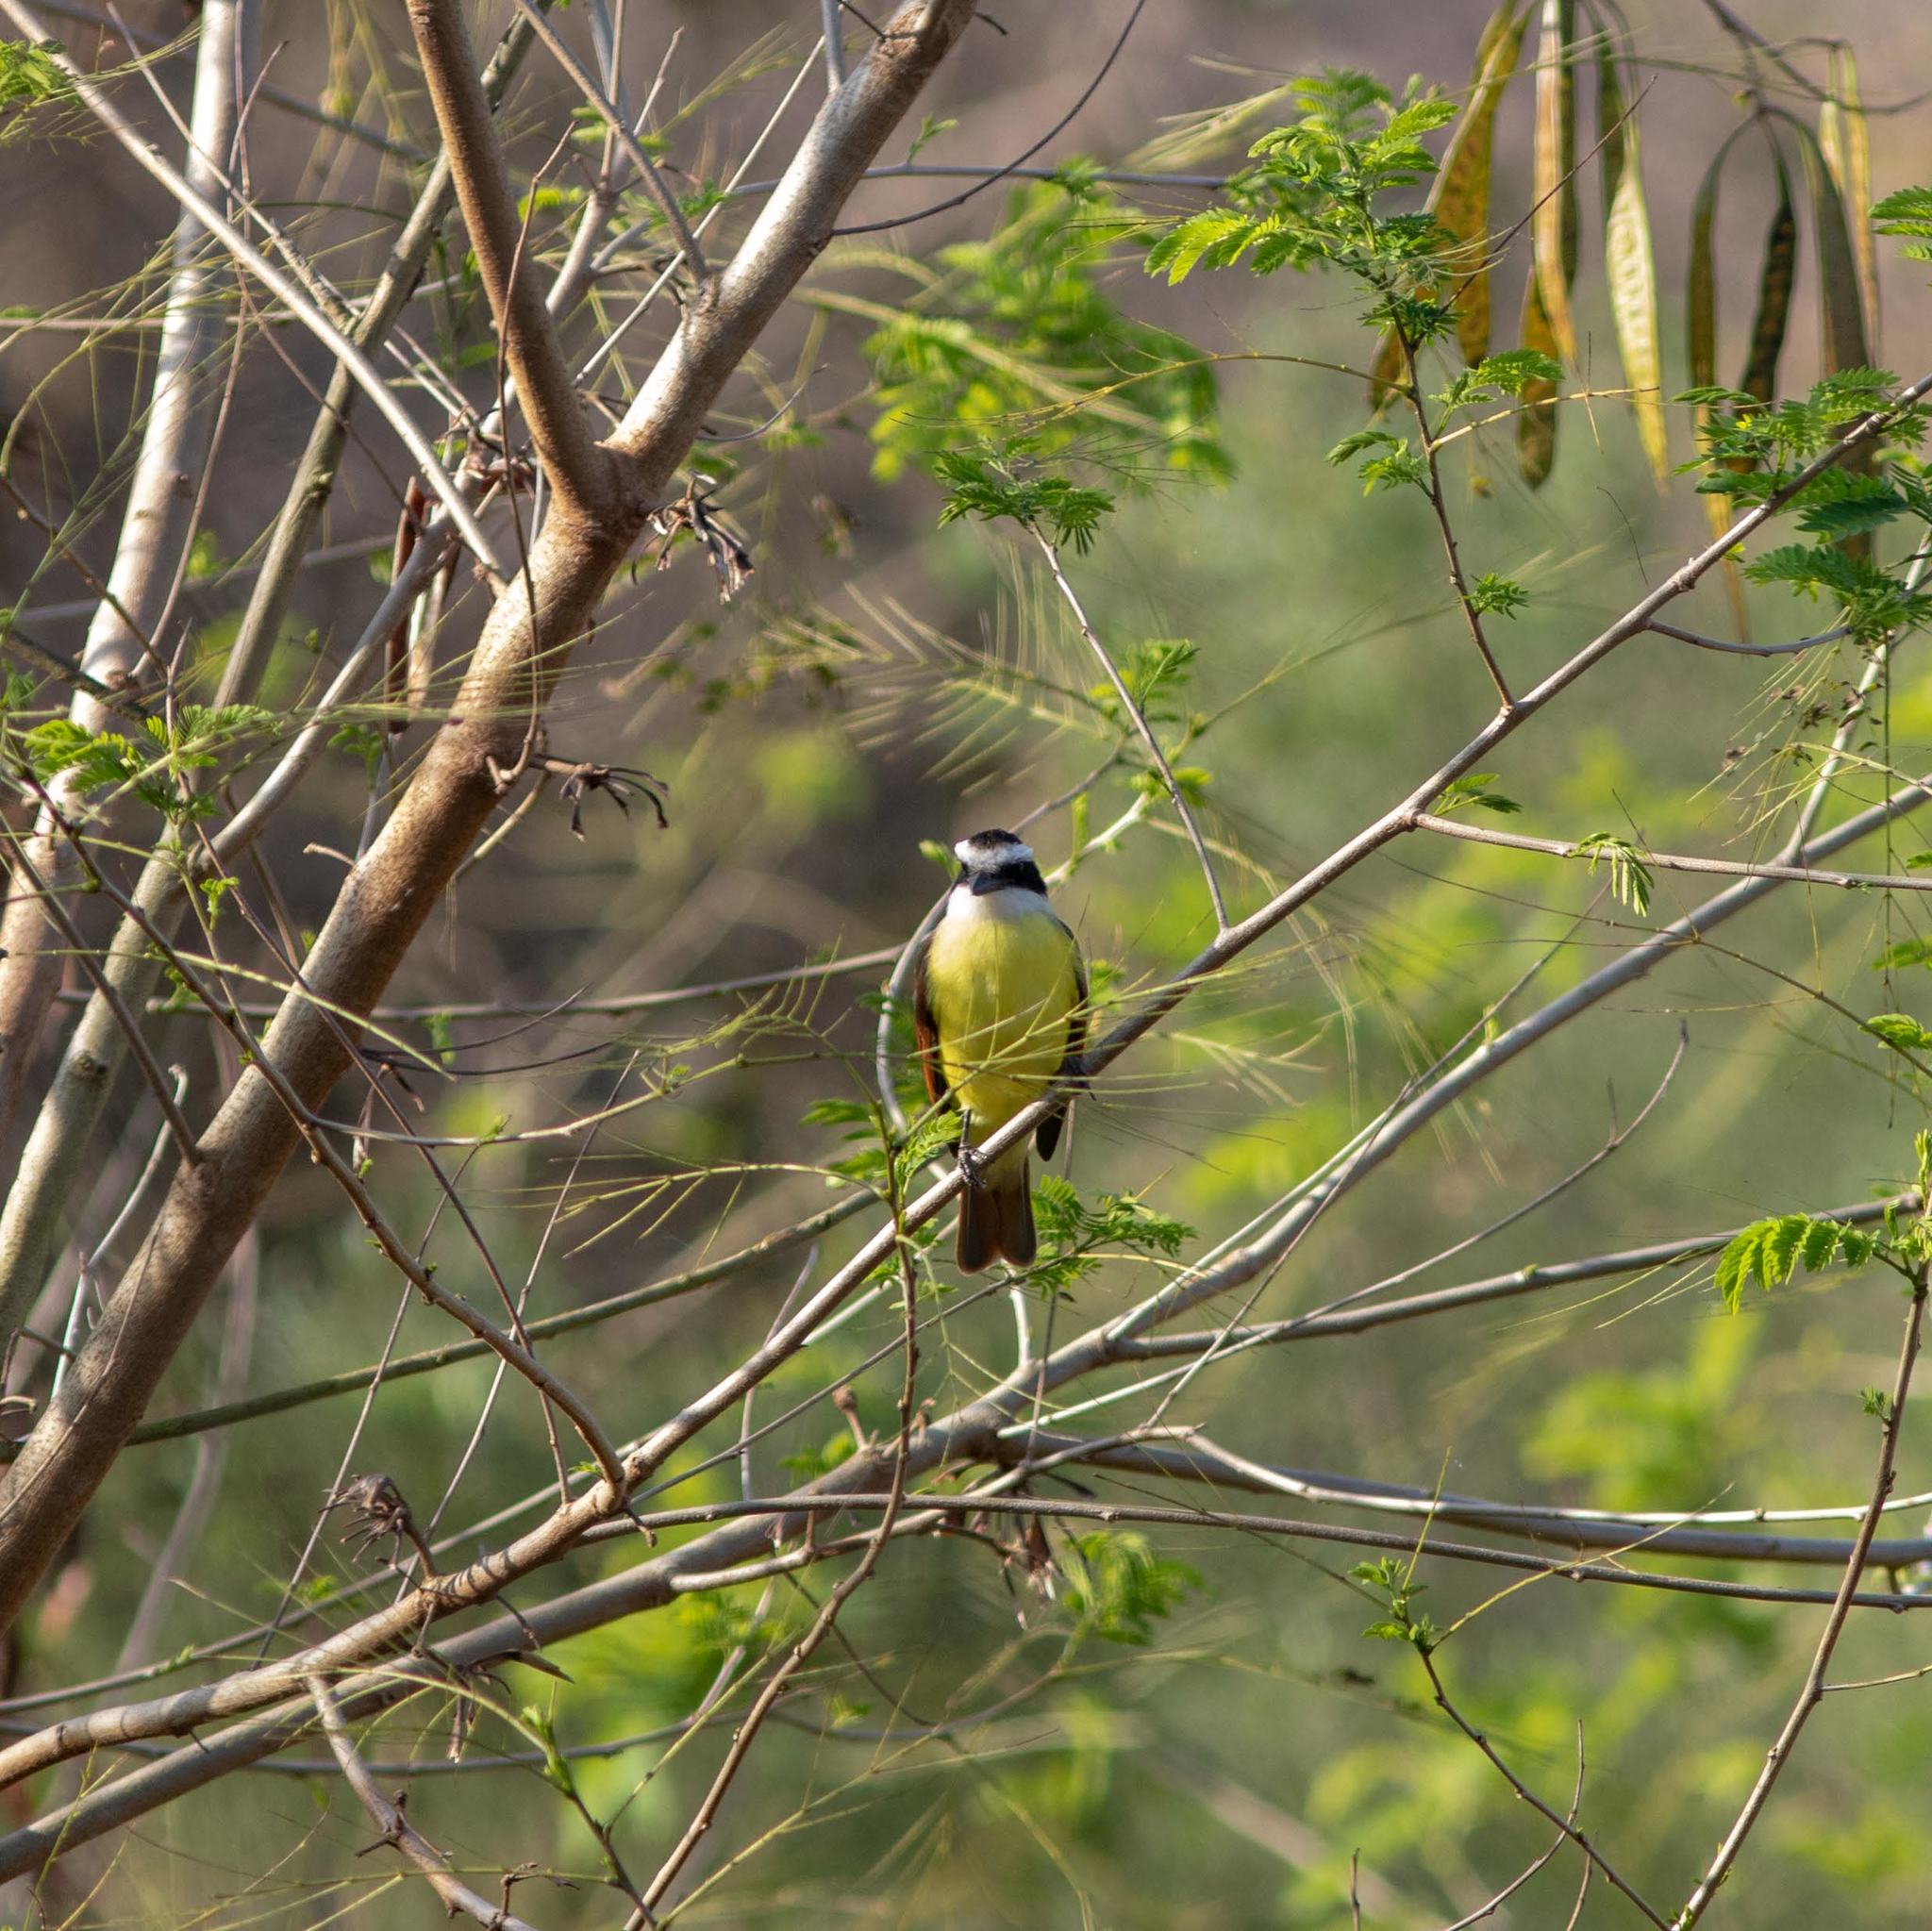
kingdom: Animalia
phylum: Chordata
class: Aves
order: Passeriformes
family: Tyrannidae
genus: Pitangus
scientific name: Pitangus sulphuratus
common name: Great kiskadee
